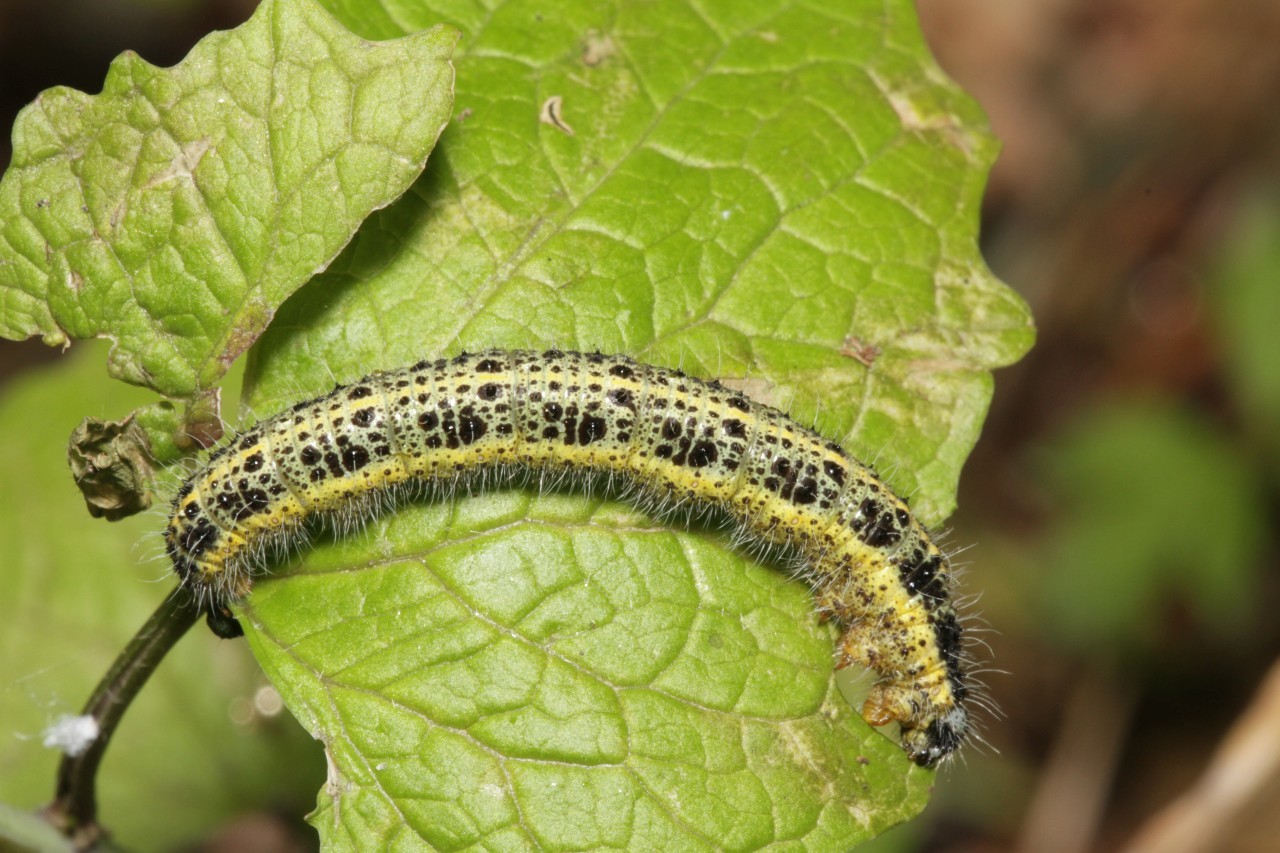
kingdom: Animalia
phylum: Arthropoda
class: Insecta
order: Lepidoptera
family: Pieridae
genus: Pieris
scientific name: Pieris brassicae
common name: Large white
